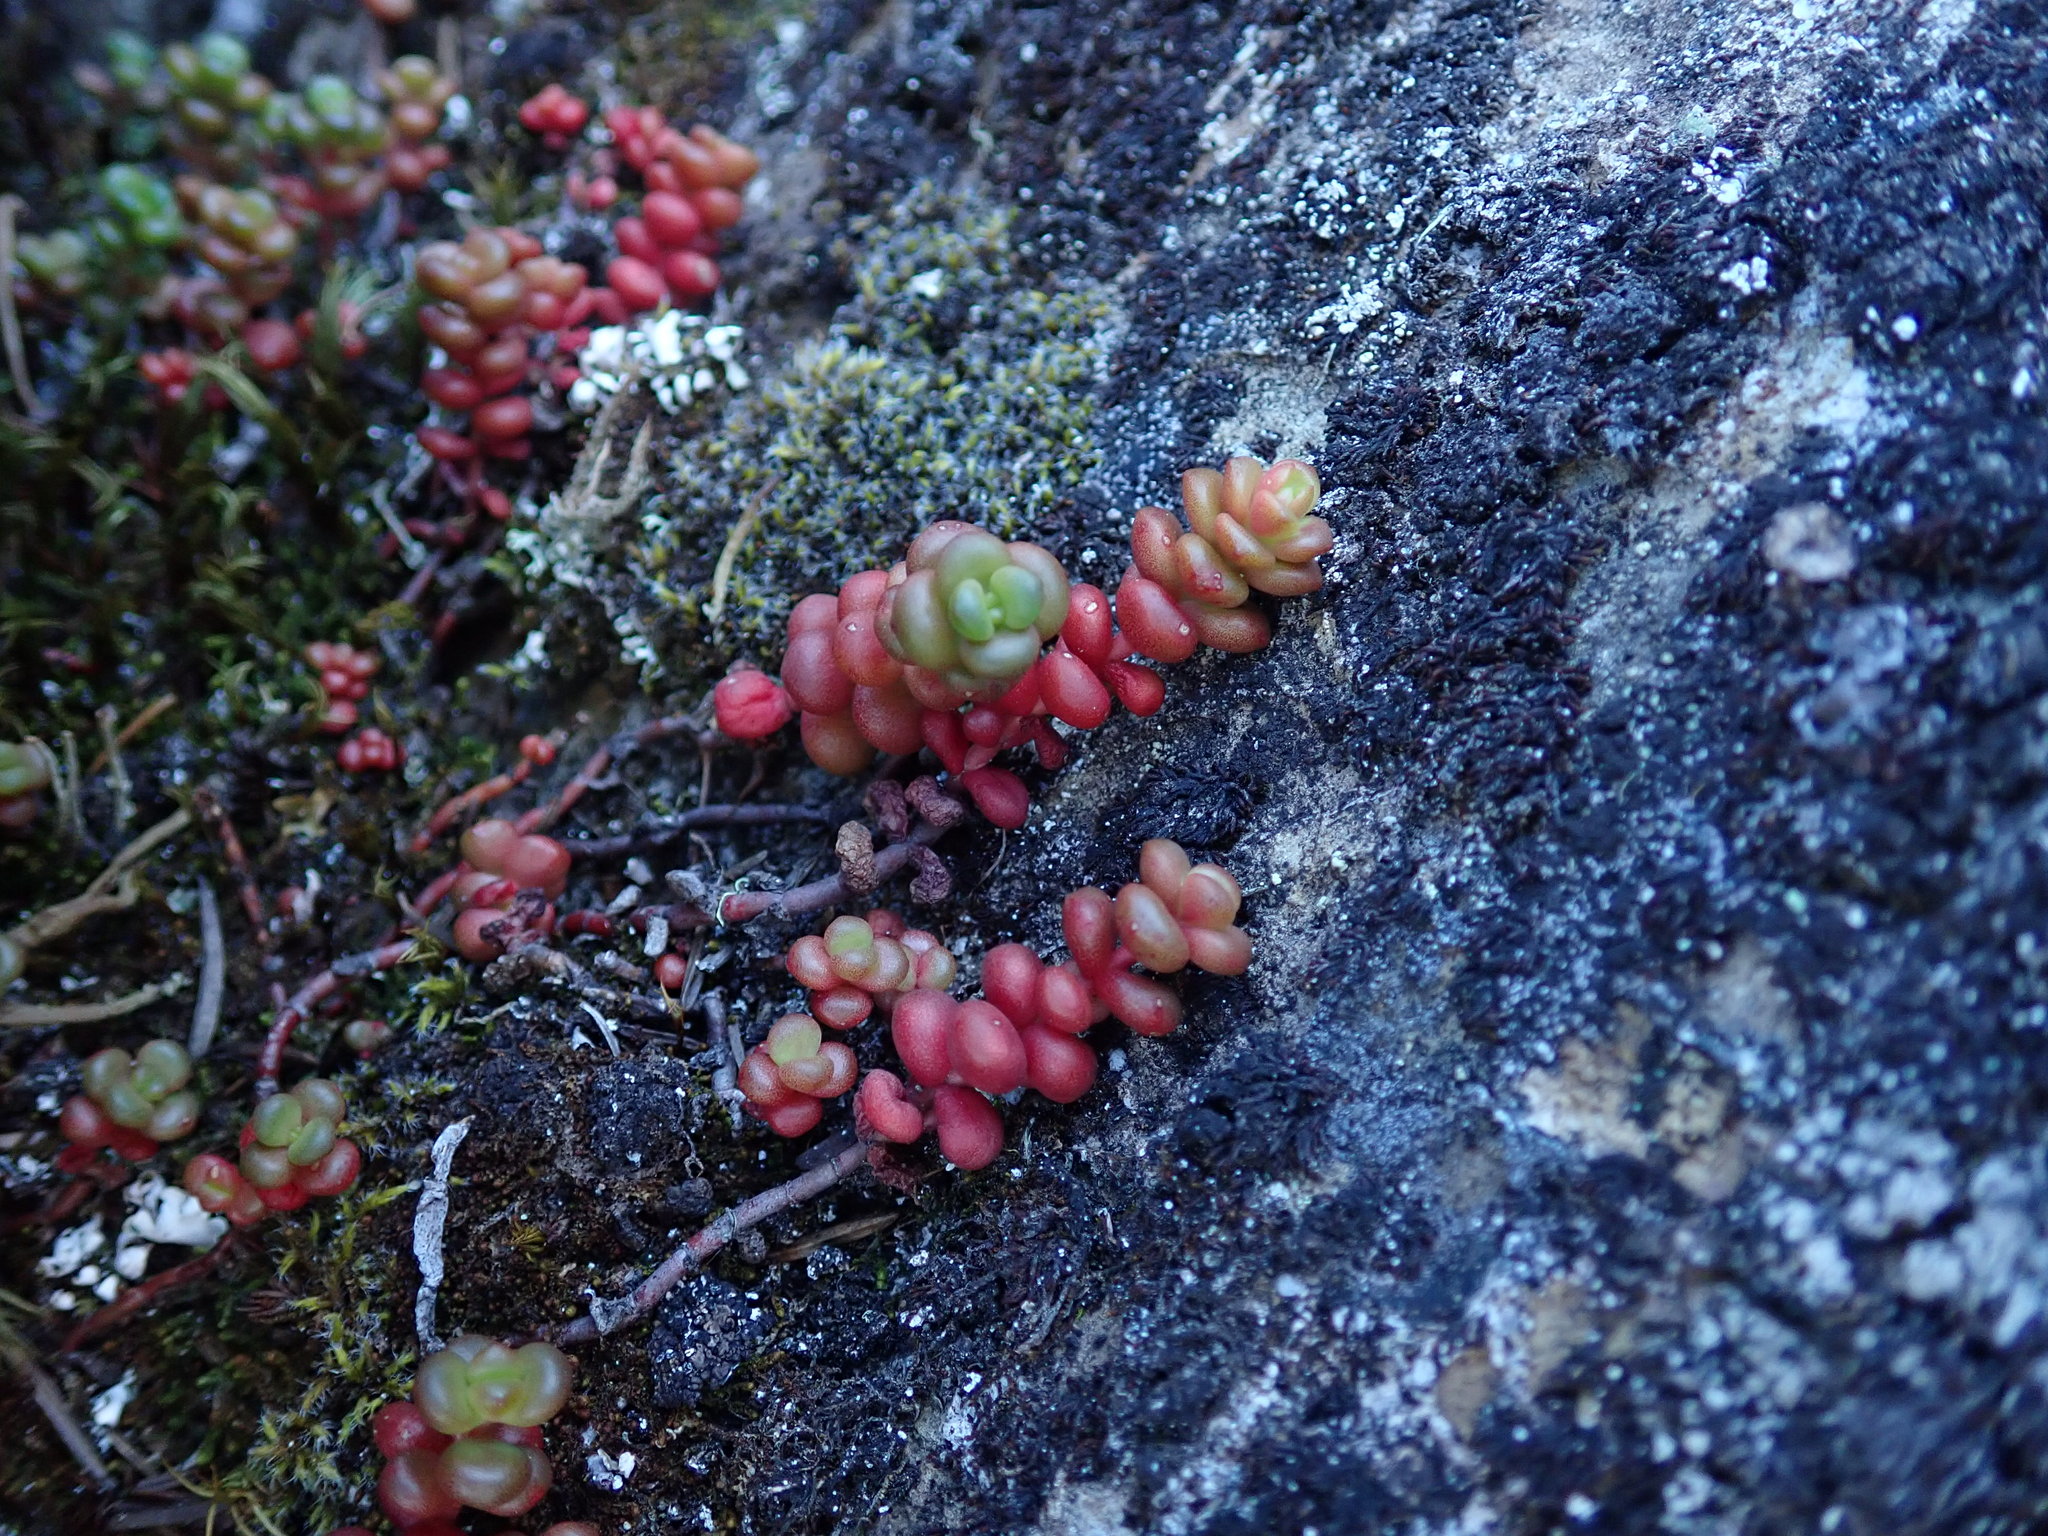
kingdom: Plantae
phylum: Tracheophyta
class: Magnoliopsida
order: Saxifragales
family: Crassulaceae
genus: Sedum
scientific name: Sedum divergens
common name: Cascade stonecrop
